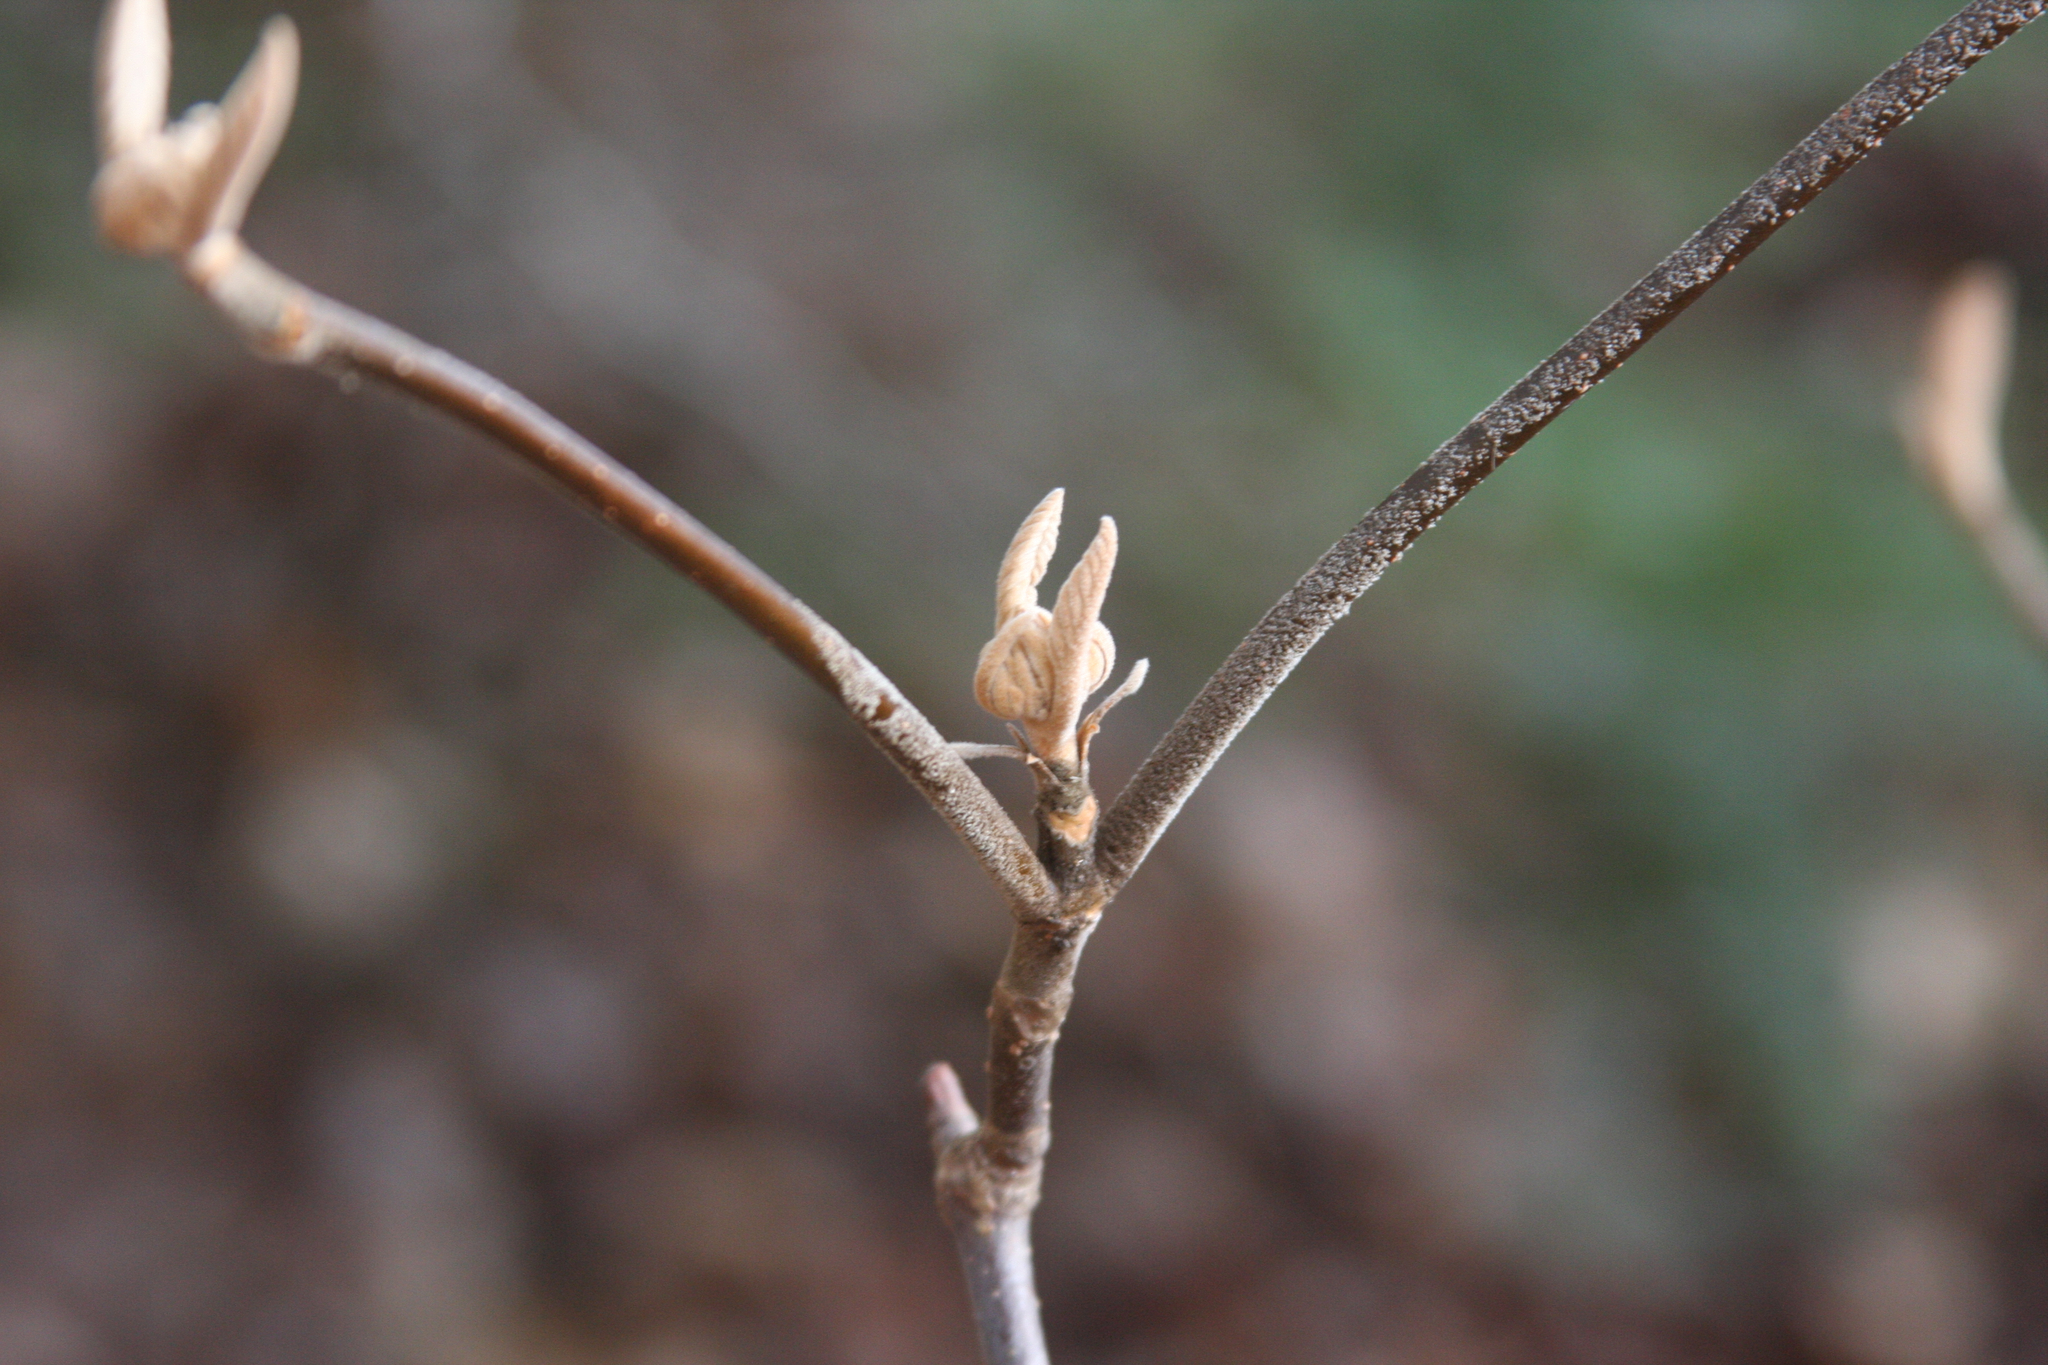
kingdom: Plantae
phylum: Tracheophyta
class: Magnoliopsida
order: Dipsacales
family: Viburnaceae
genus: Viburnum
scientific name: Viburnum lantanoides
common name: Hobblebush
